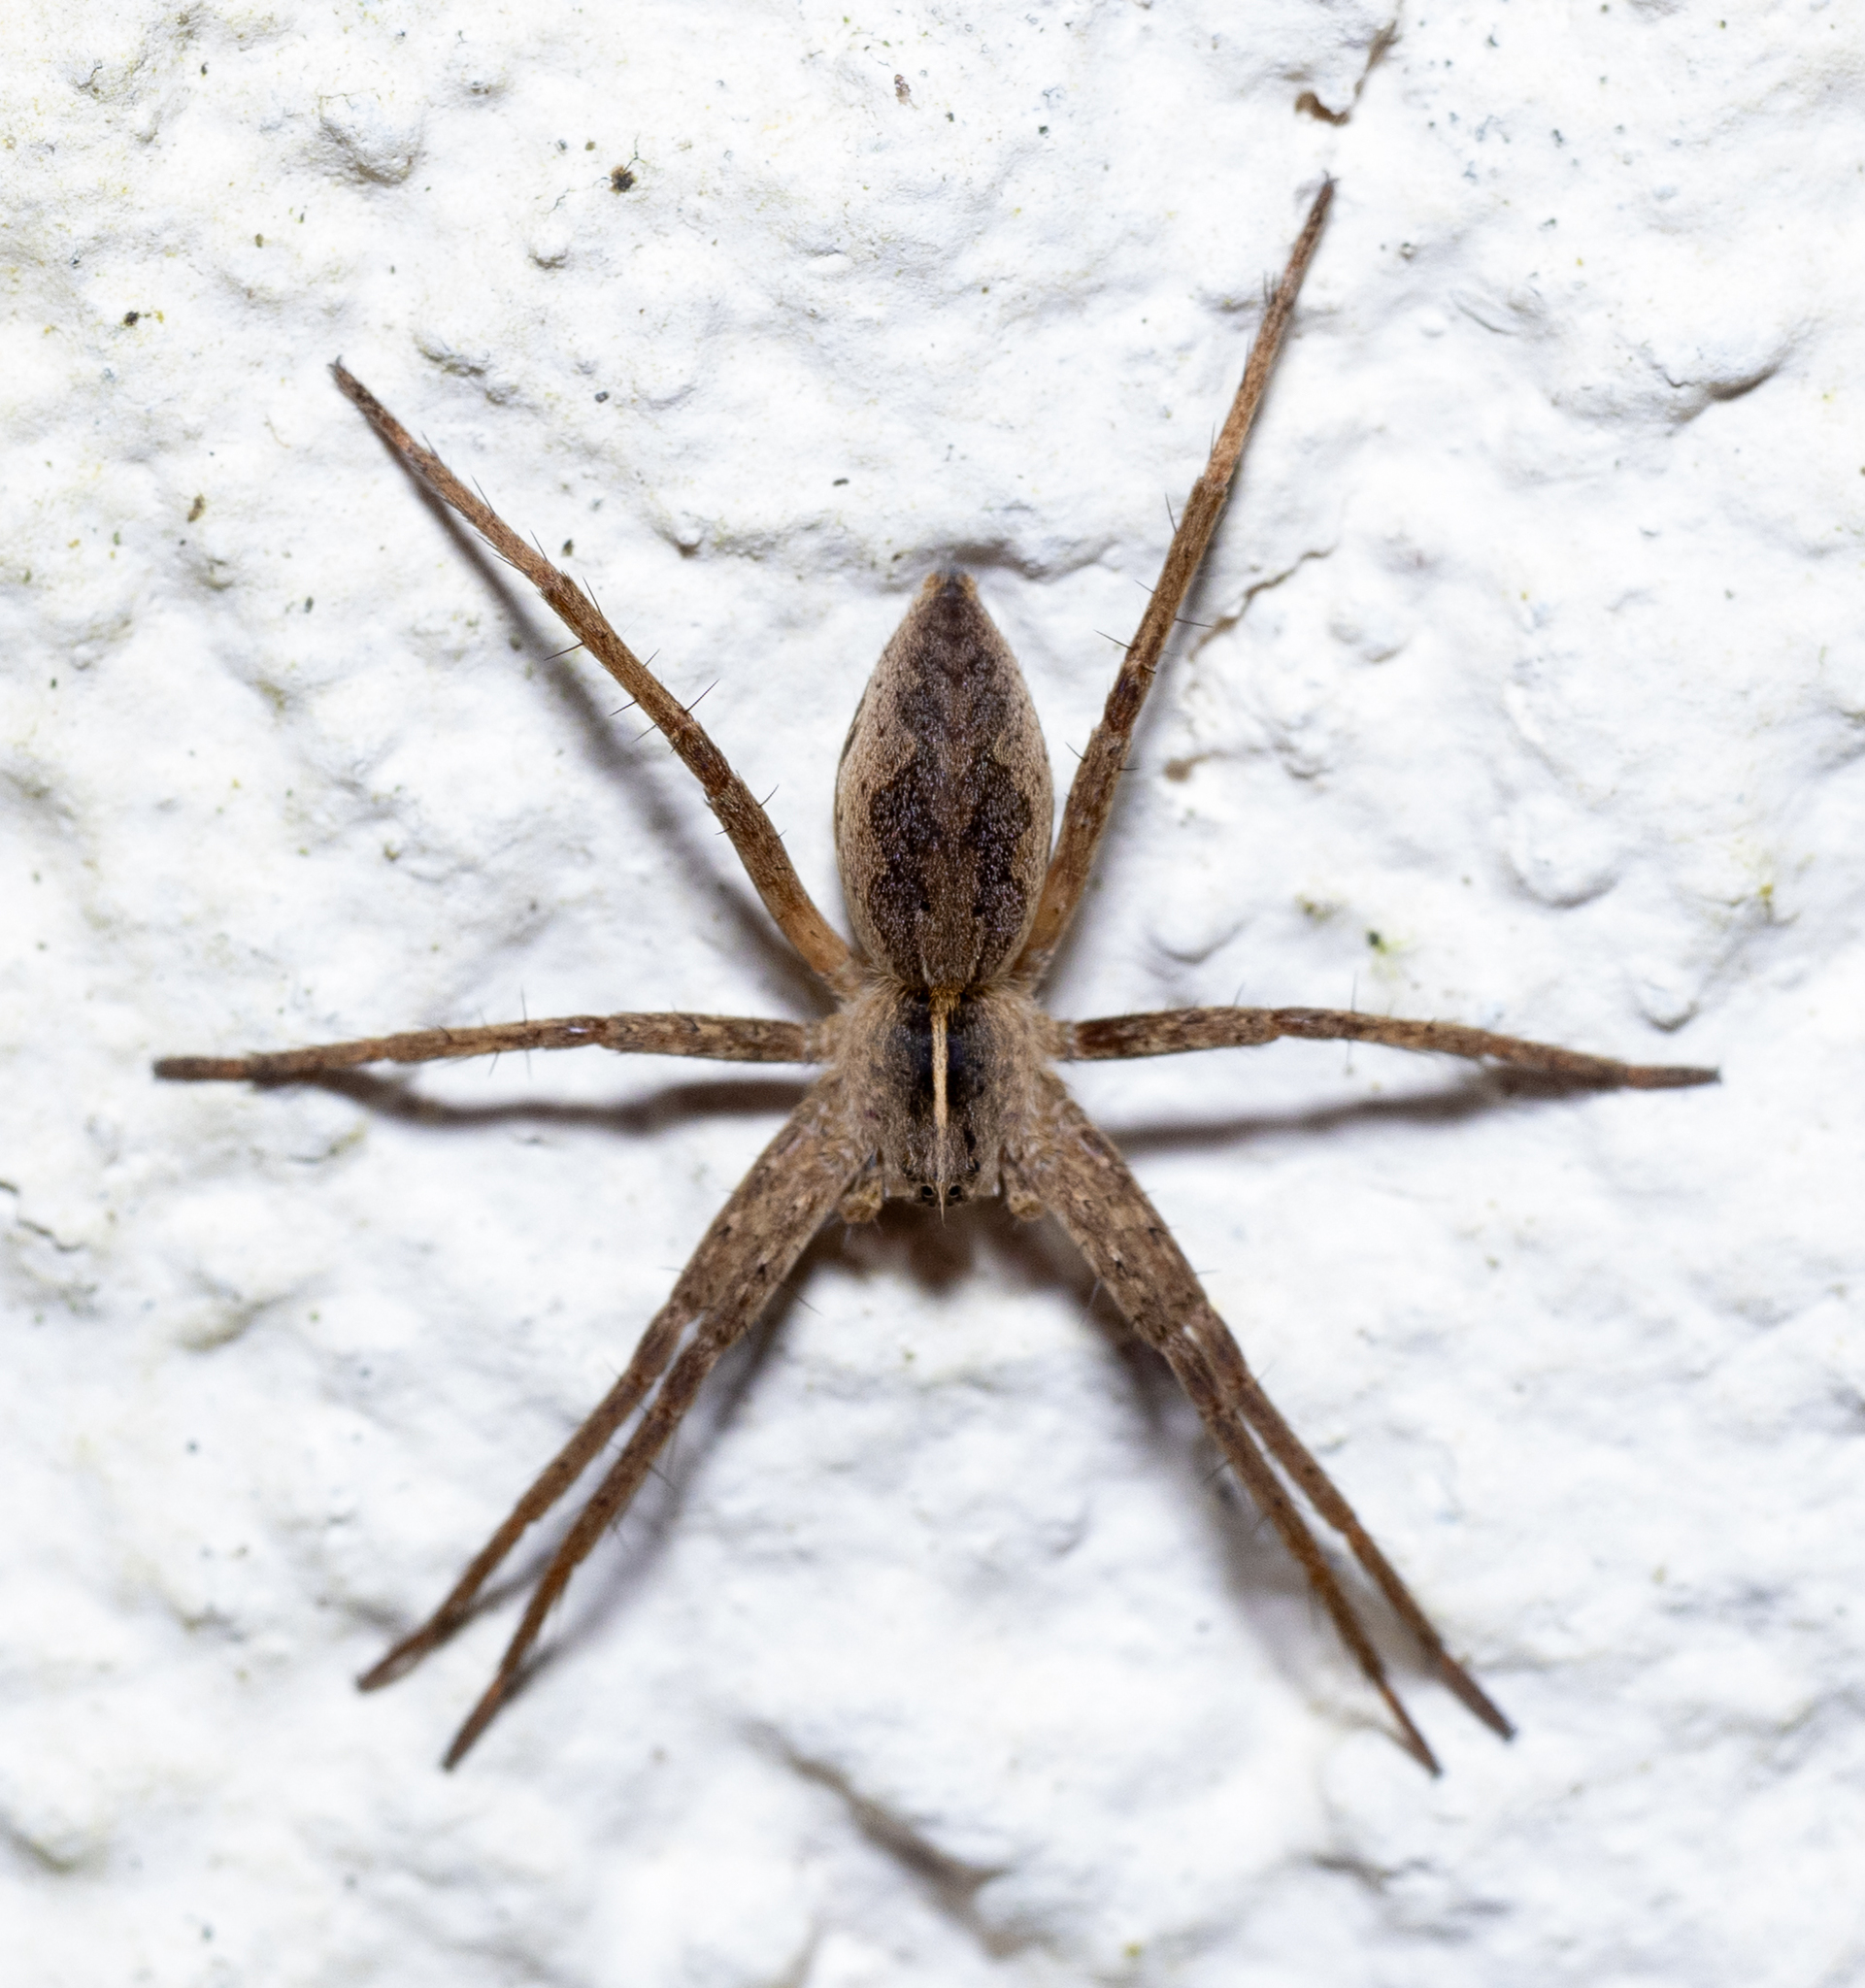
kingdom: Animalia
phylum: Arthropoda
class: Arachnida
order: Araneae
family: Pisauridae
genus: Pisaura
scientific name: Pisaura mirabilis
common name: Tent spider
